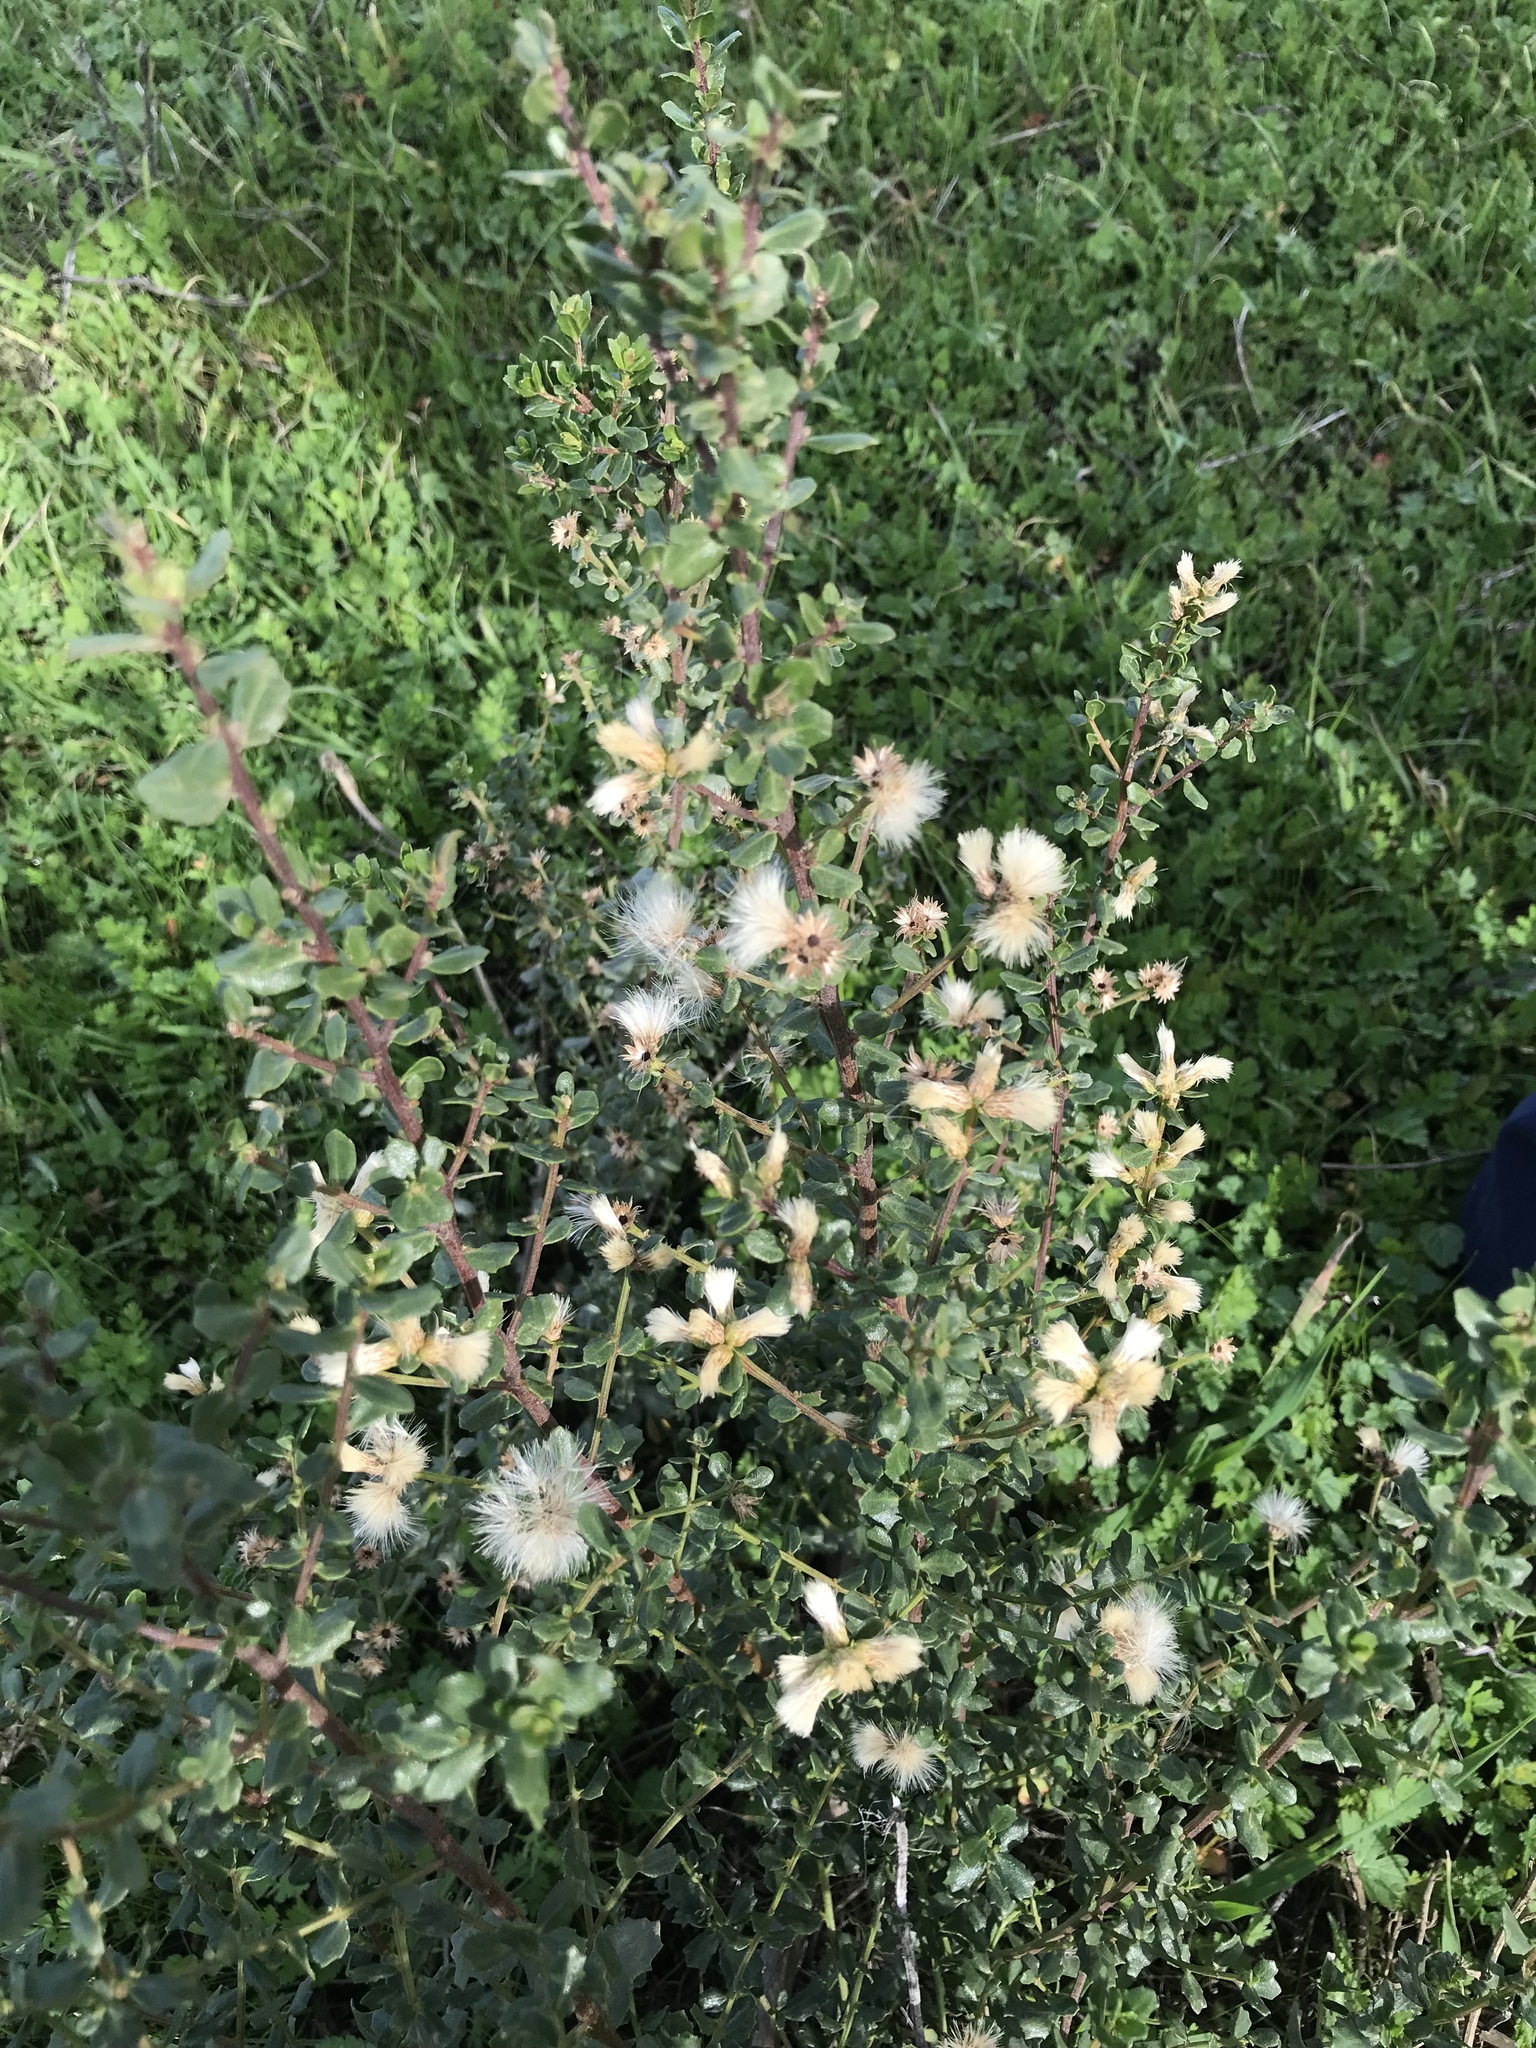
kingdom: Plantae
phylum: Tracheophyta
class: Magnoliopsida
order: Asterales
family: Asteraceae
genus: Baccharis
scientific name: Baccharis pilularis
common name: Coyotebrush
